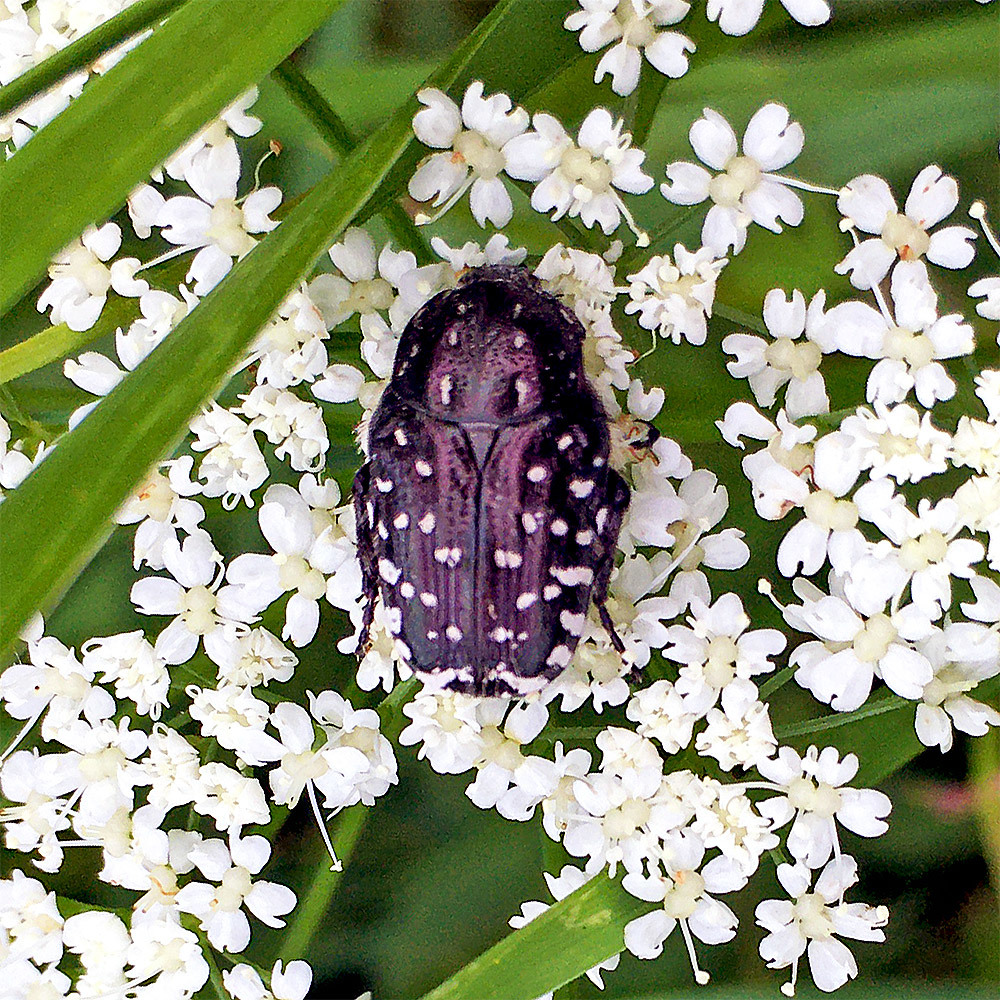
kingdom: Animalia
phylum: Arthropoda
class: Insecta
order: Coleoptera
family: Scarabaeidae
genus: Oxythyrea
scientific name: Oxythyrea funesta
